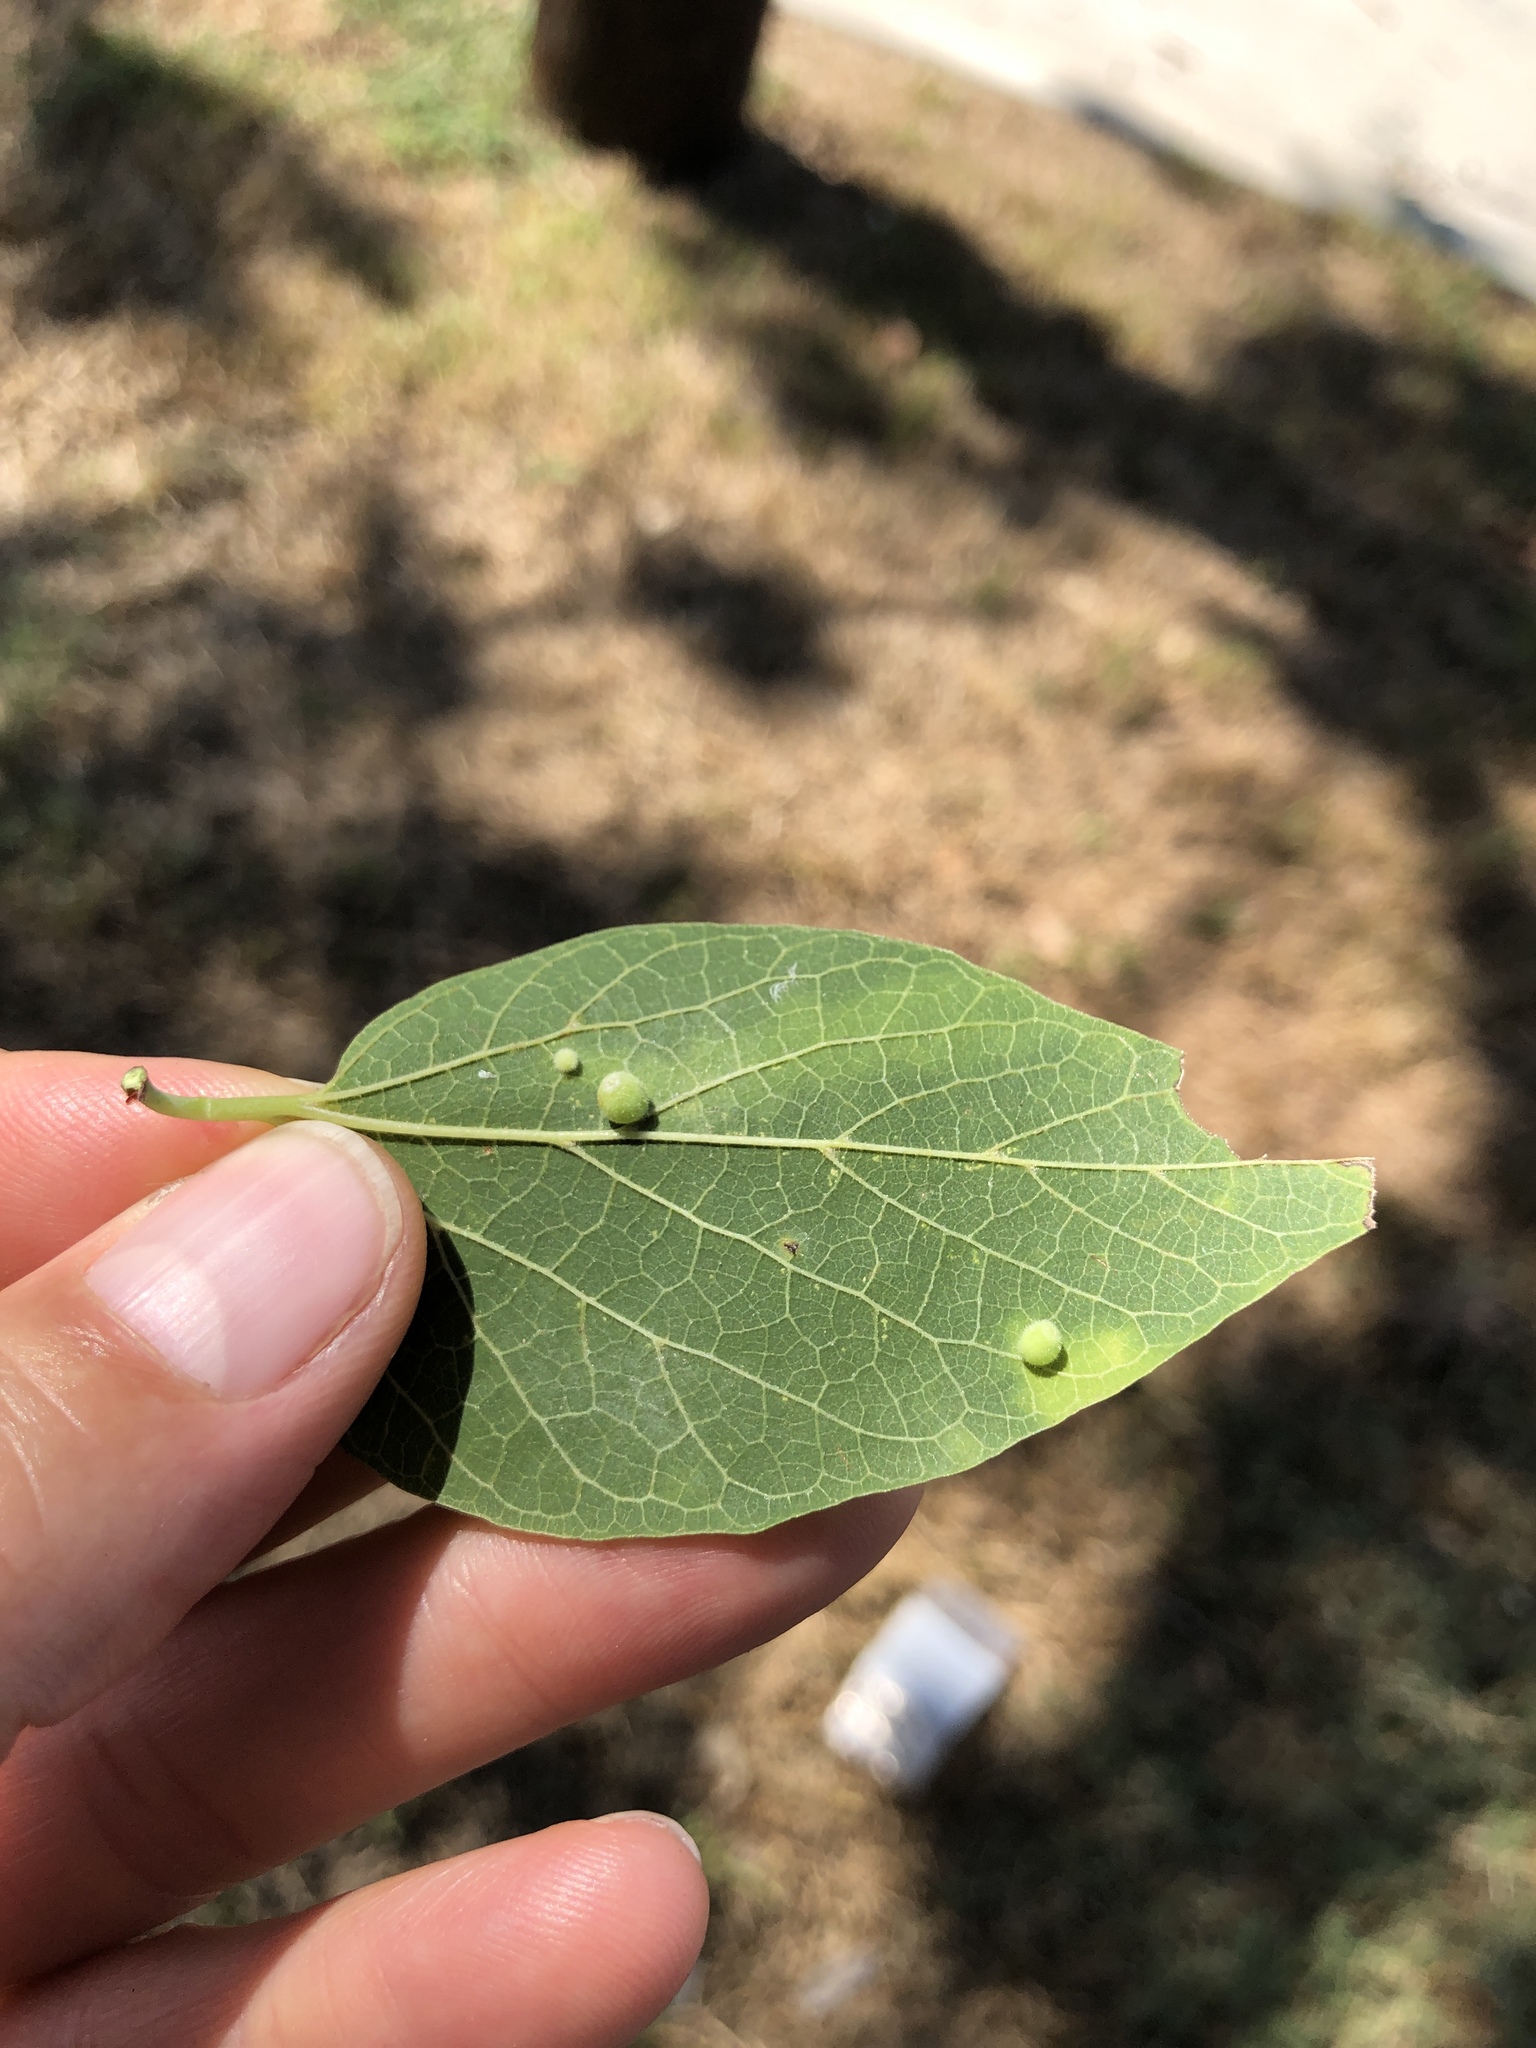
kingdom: Animalia
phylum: Arthropoda
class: Insecta
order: Diptera
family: Cecidomyiidae
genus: Celticecis
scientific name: Celticecis globosa
